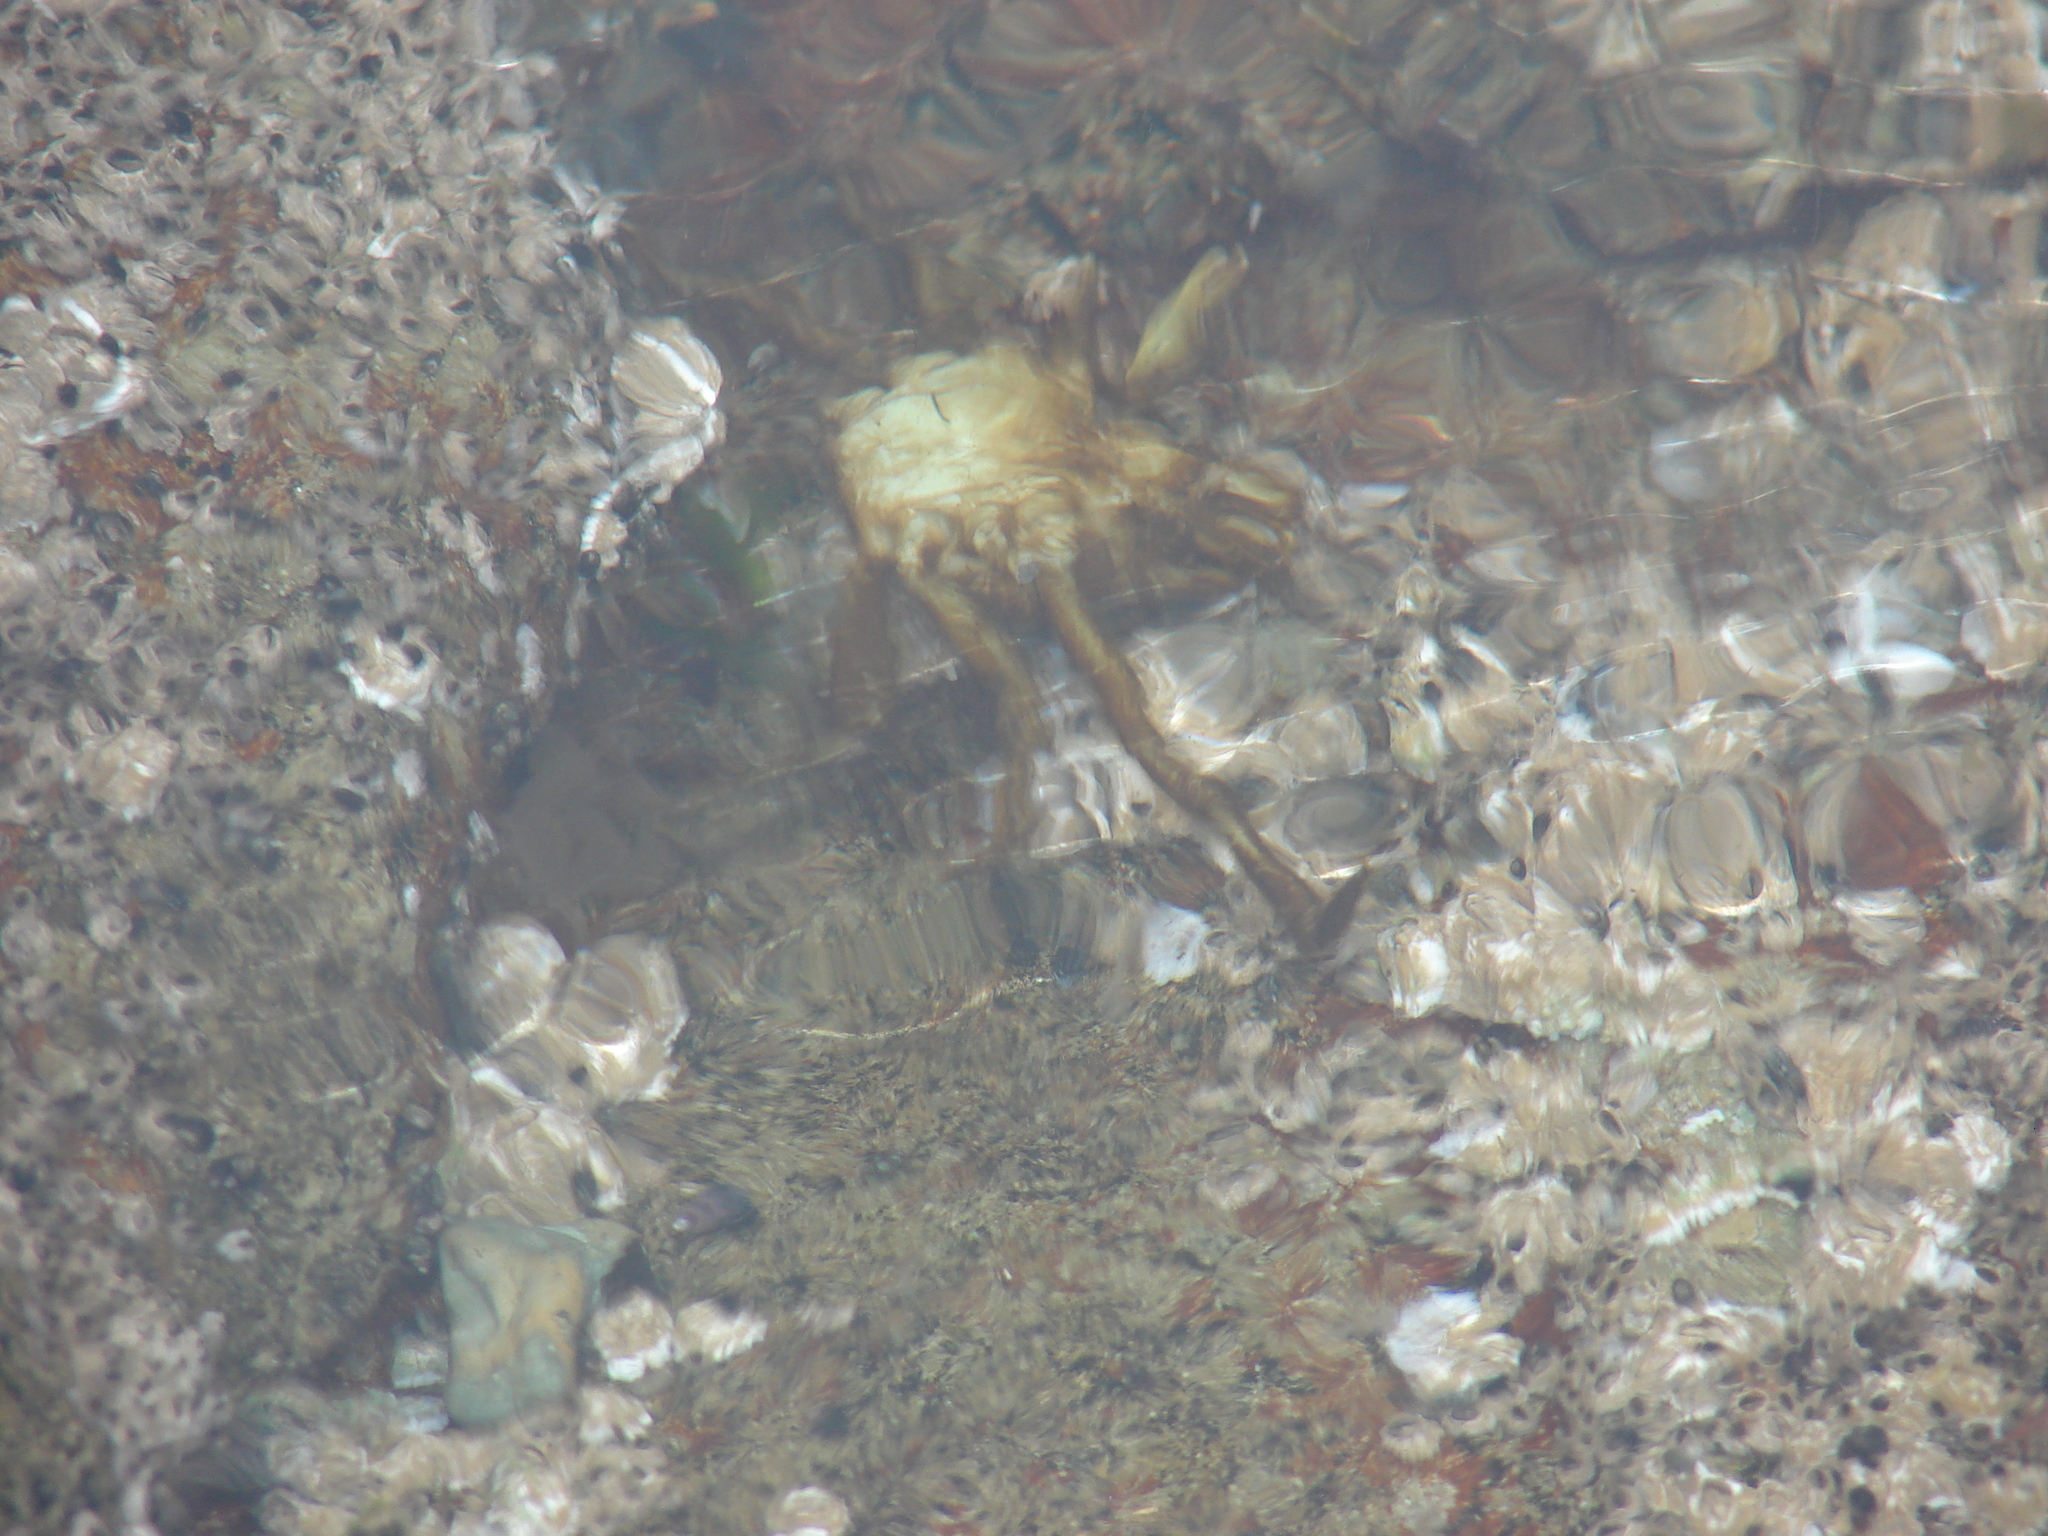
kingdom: Animalia
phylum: Arthropoda
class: Malacostraca
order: Decapoda
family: Epialtidae
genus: Pugettia
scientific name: Pugettia producta
